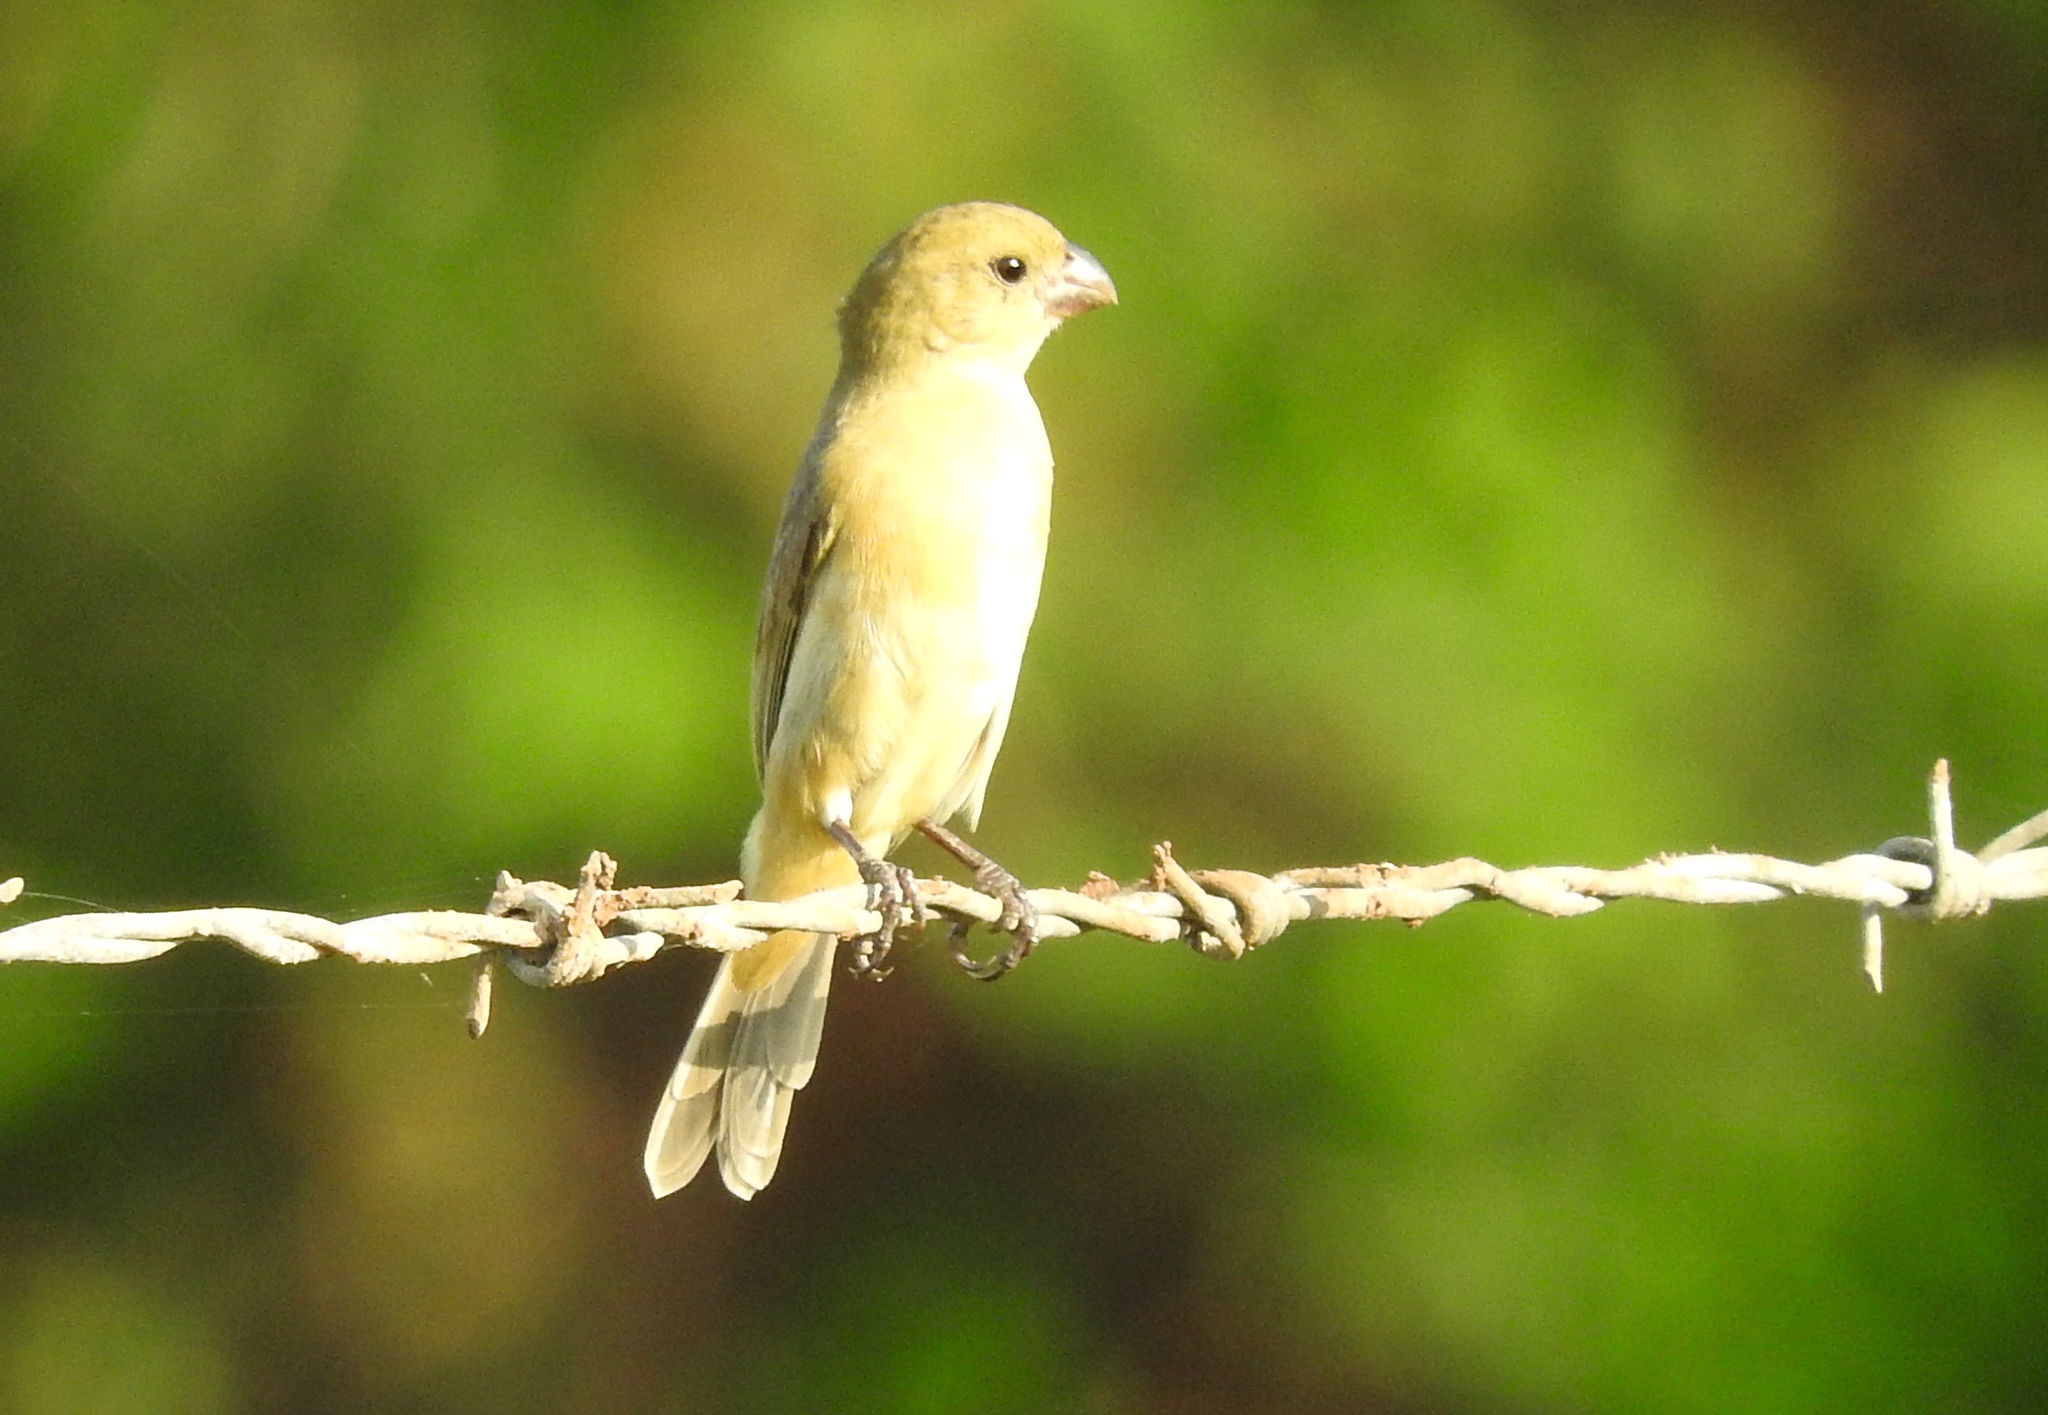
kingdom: Animalia
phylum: Chordata
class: Aves
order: Passeriformes
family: Thraupidae
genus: Sporophila
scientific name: Sporophila torqueola
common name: White-collared seedeater
